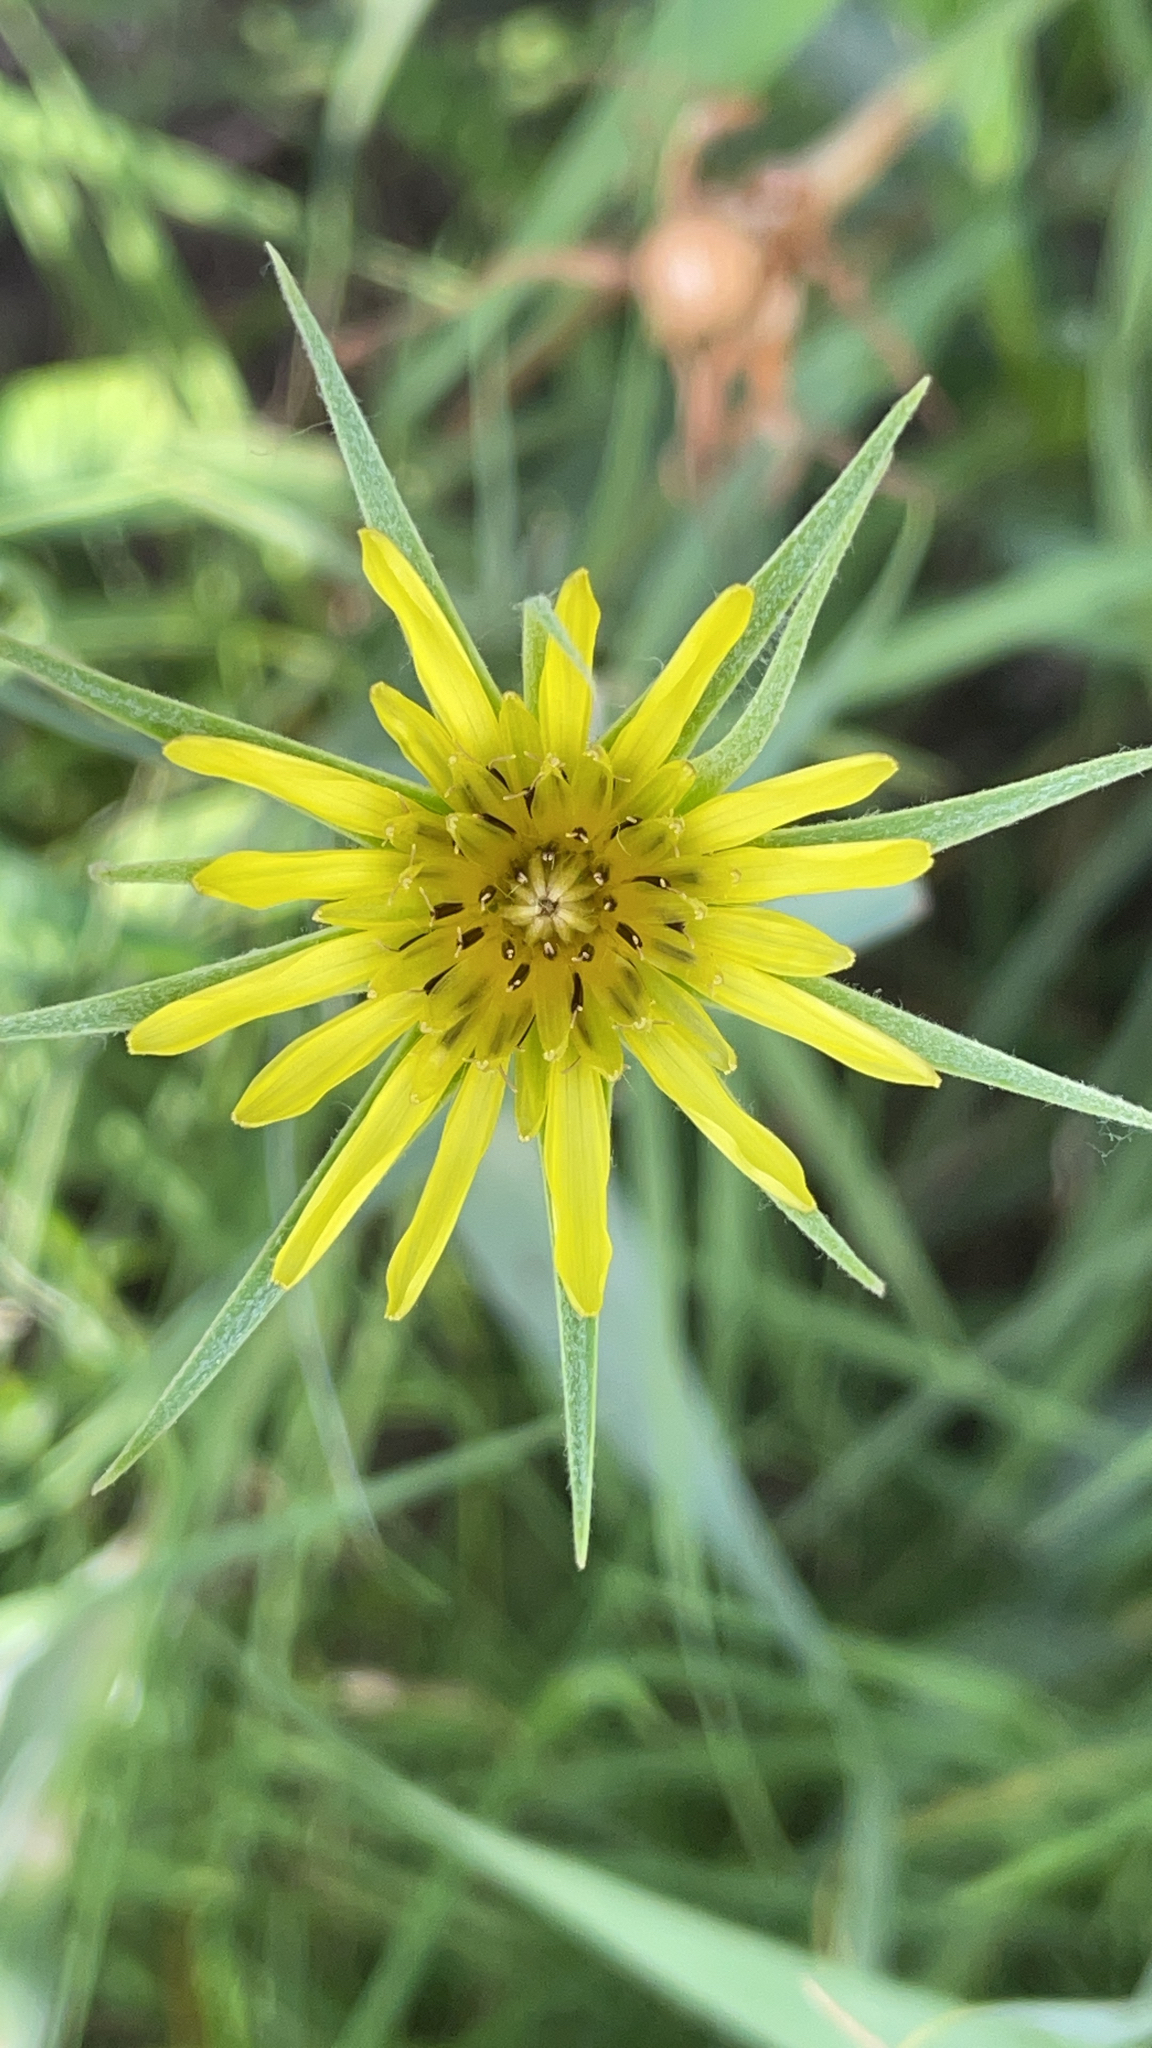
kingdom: Plantae
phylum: Tracheophyta
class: Magnoliopsida
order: Asterales
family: Asteraceae
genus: Tragopogon
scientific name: Tragopogon dubius
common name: Yellow salsify
